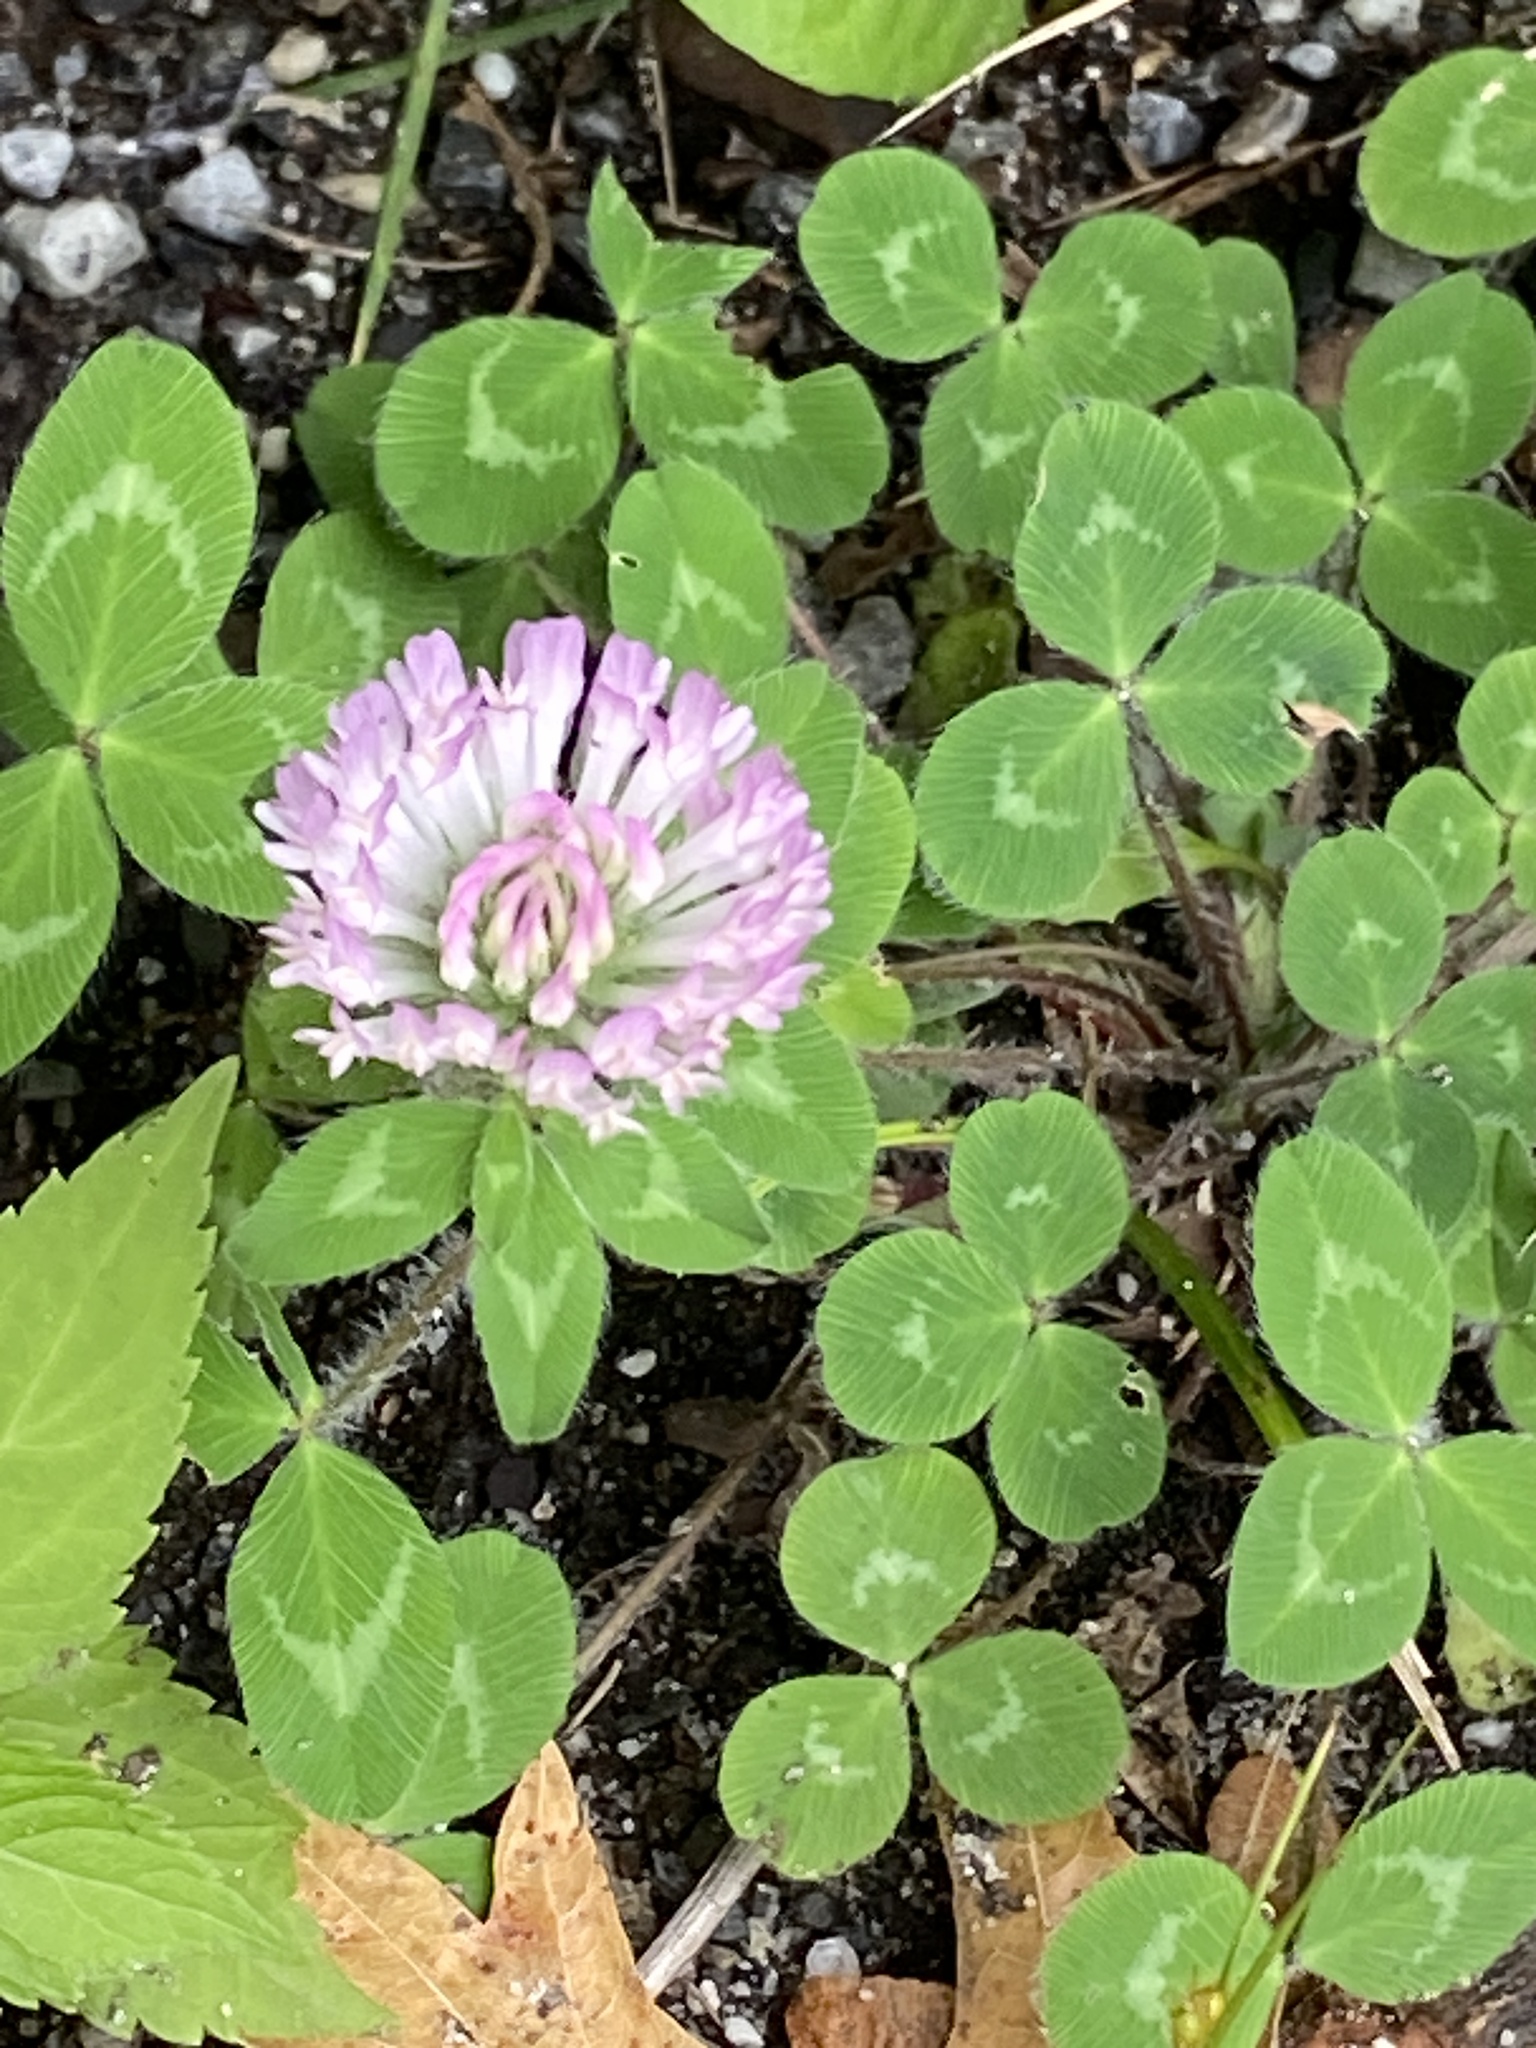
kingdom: Plantae
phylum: Tracheophyta
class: Magnoliopsida
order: Fabales
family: Fabaceae
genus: Trifolium
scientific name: Trifolium pratense
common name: Red clover
